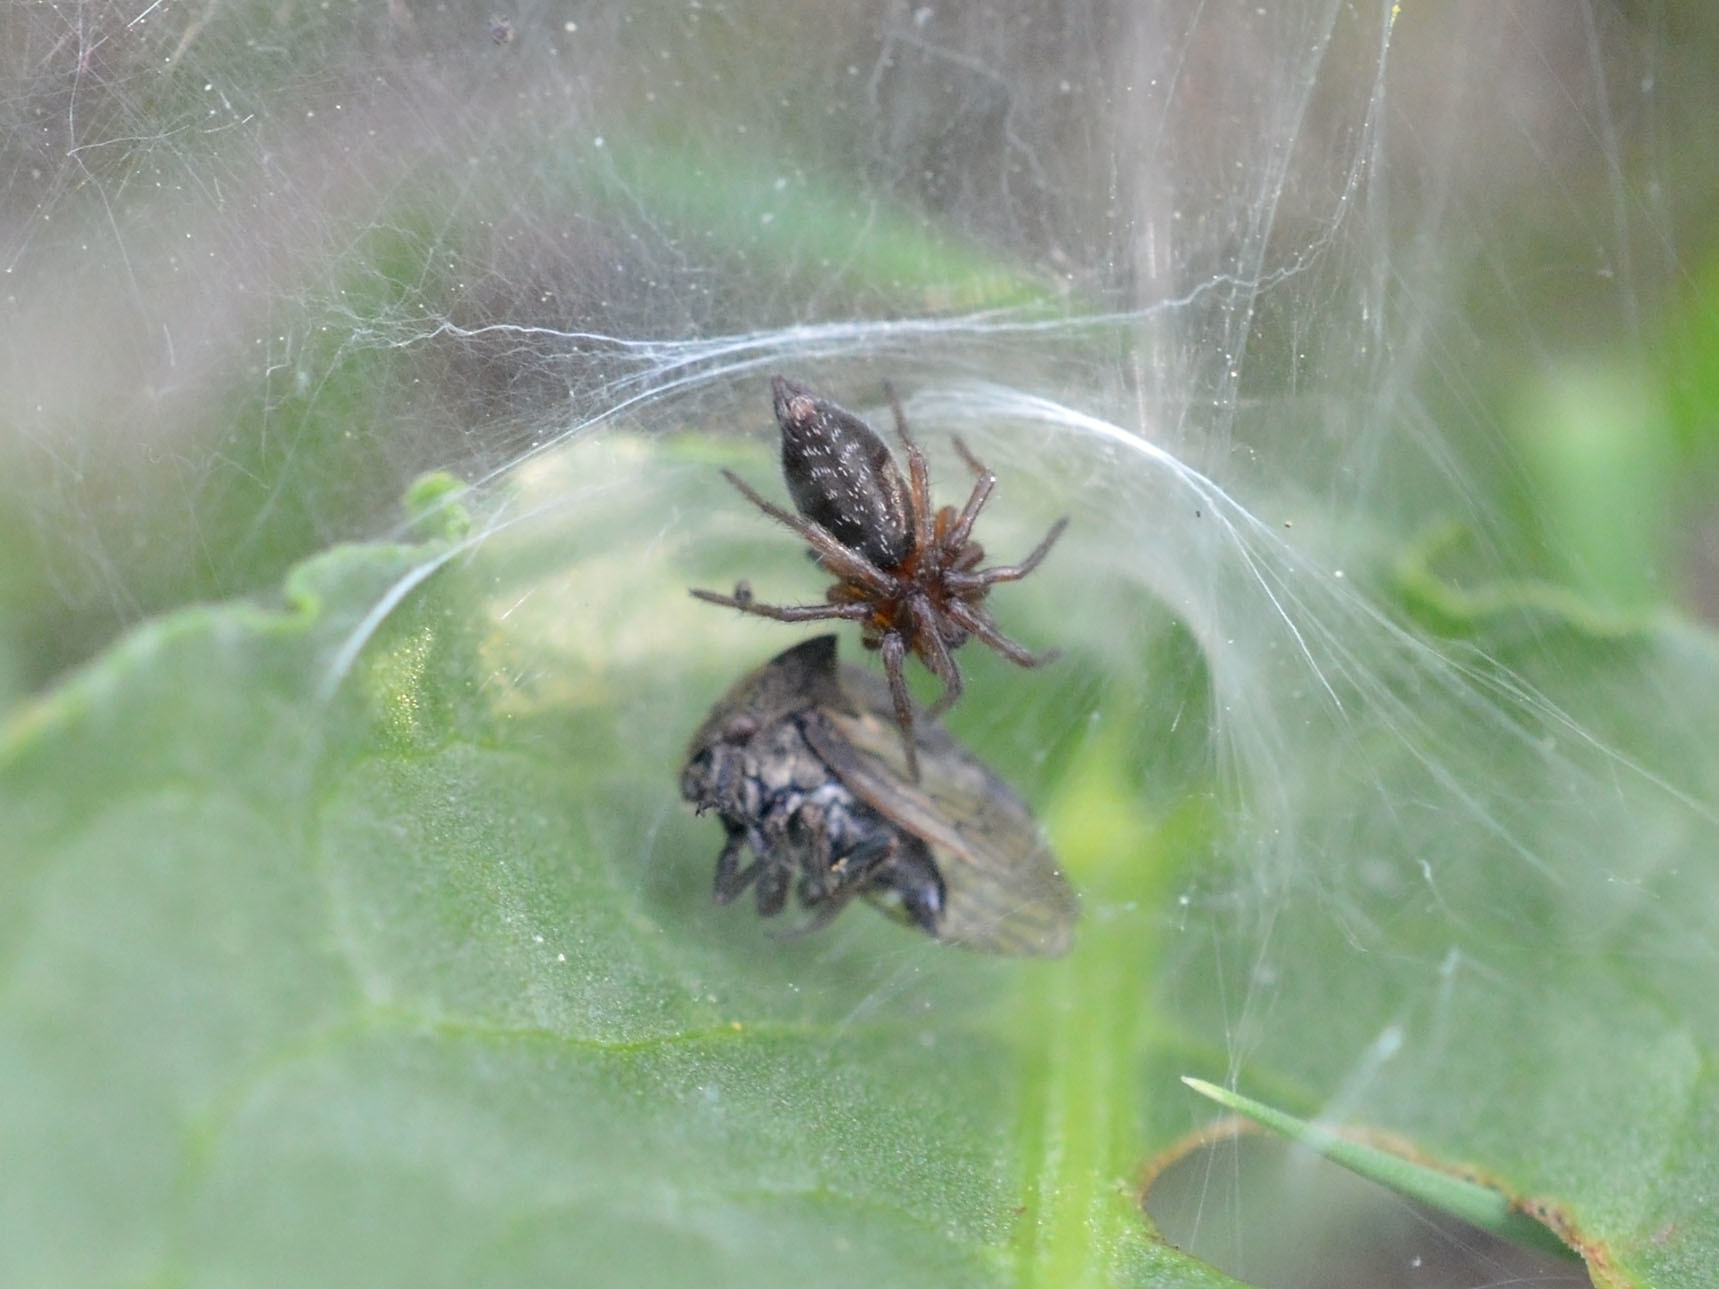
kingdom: Animalia
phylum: Arthropoda
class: Insecta
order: Hemiptera
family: Membracidae
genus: Centrotus
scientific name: Centrotus cornuta
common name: Treehopper
